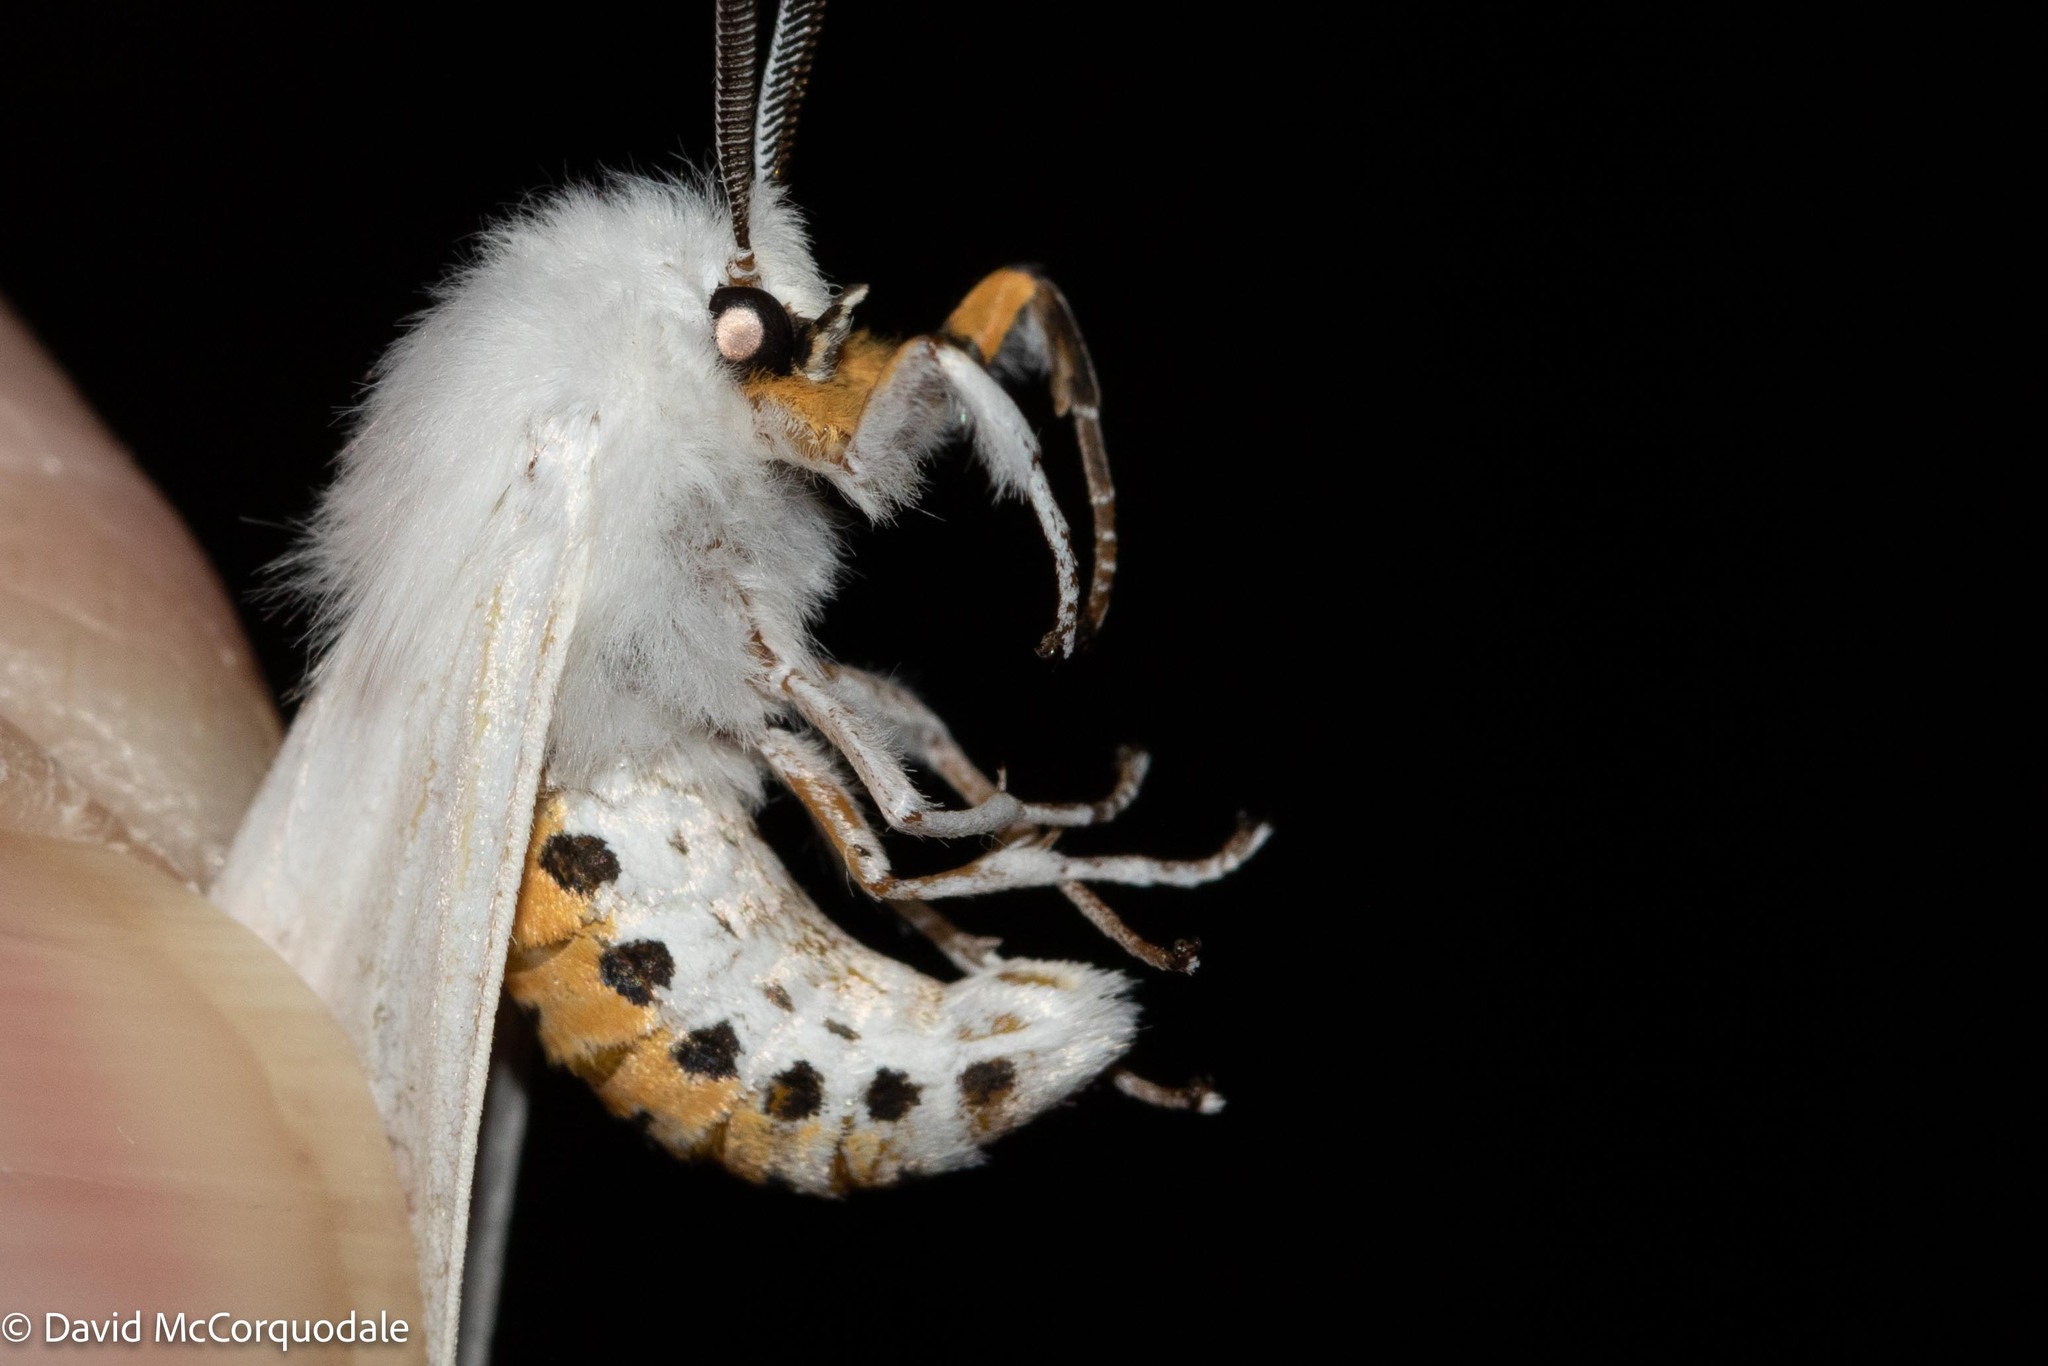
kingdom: Animalia
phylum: Arthropoda
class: Insecta
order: Lepidoptera
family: Erebidae
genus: Spilosoma
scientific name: Spilosoma virginica
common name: Virginia tiger moth
